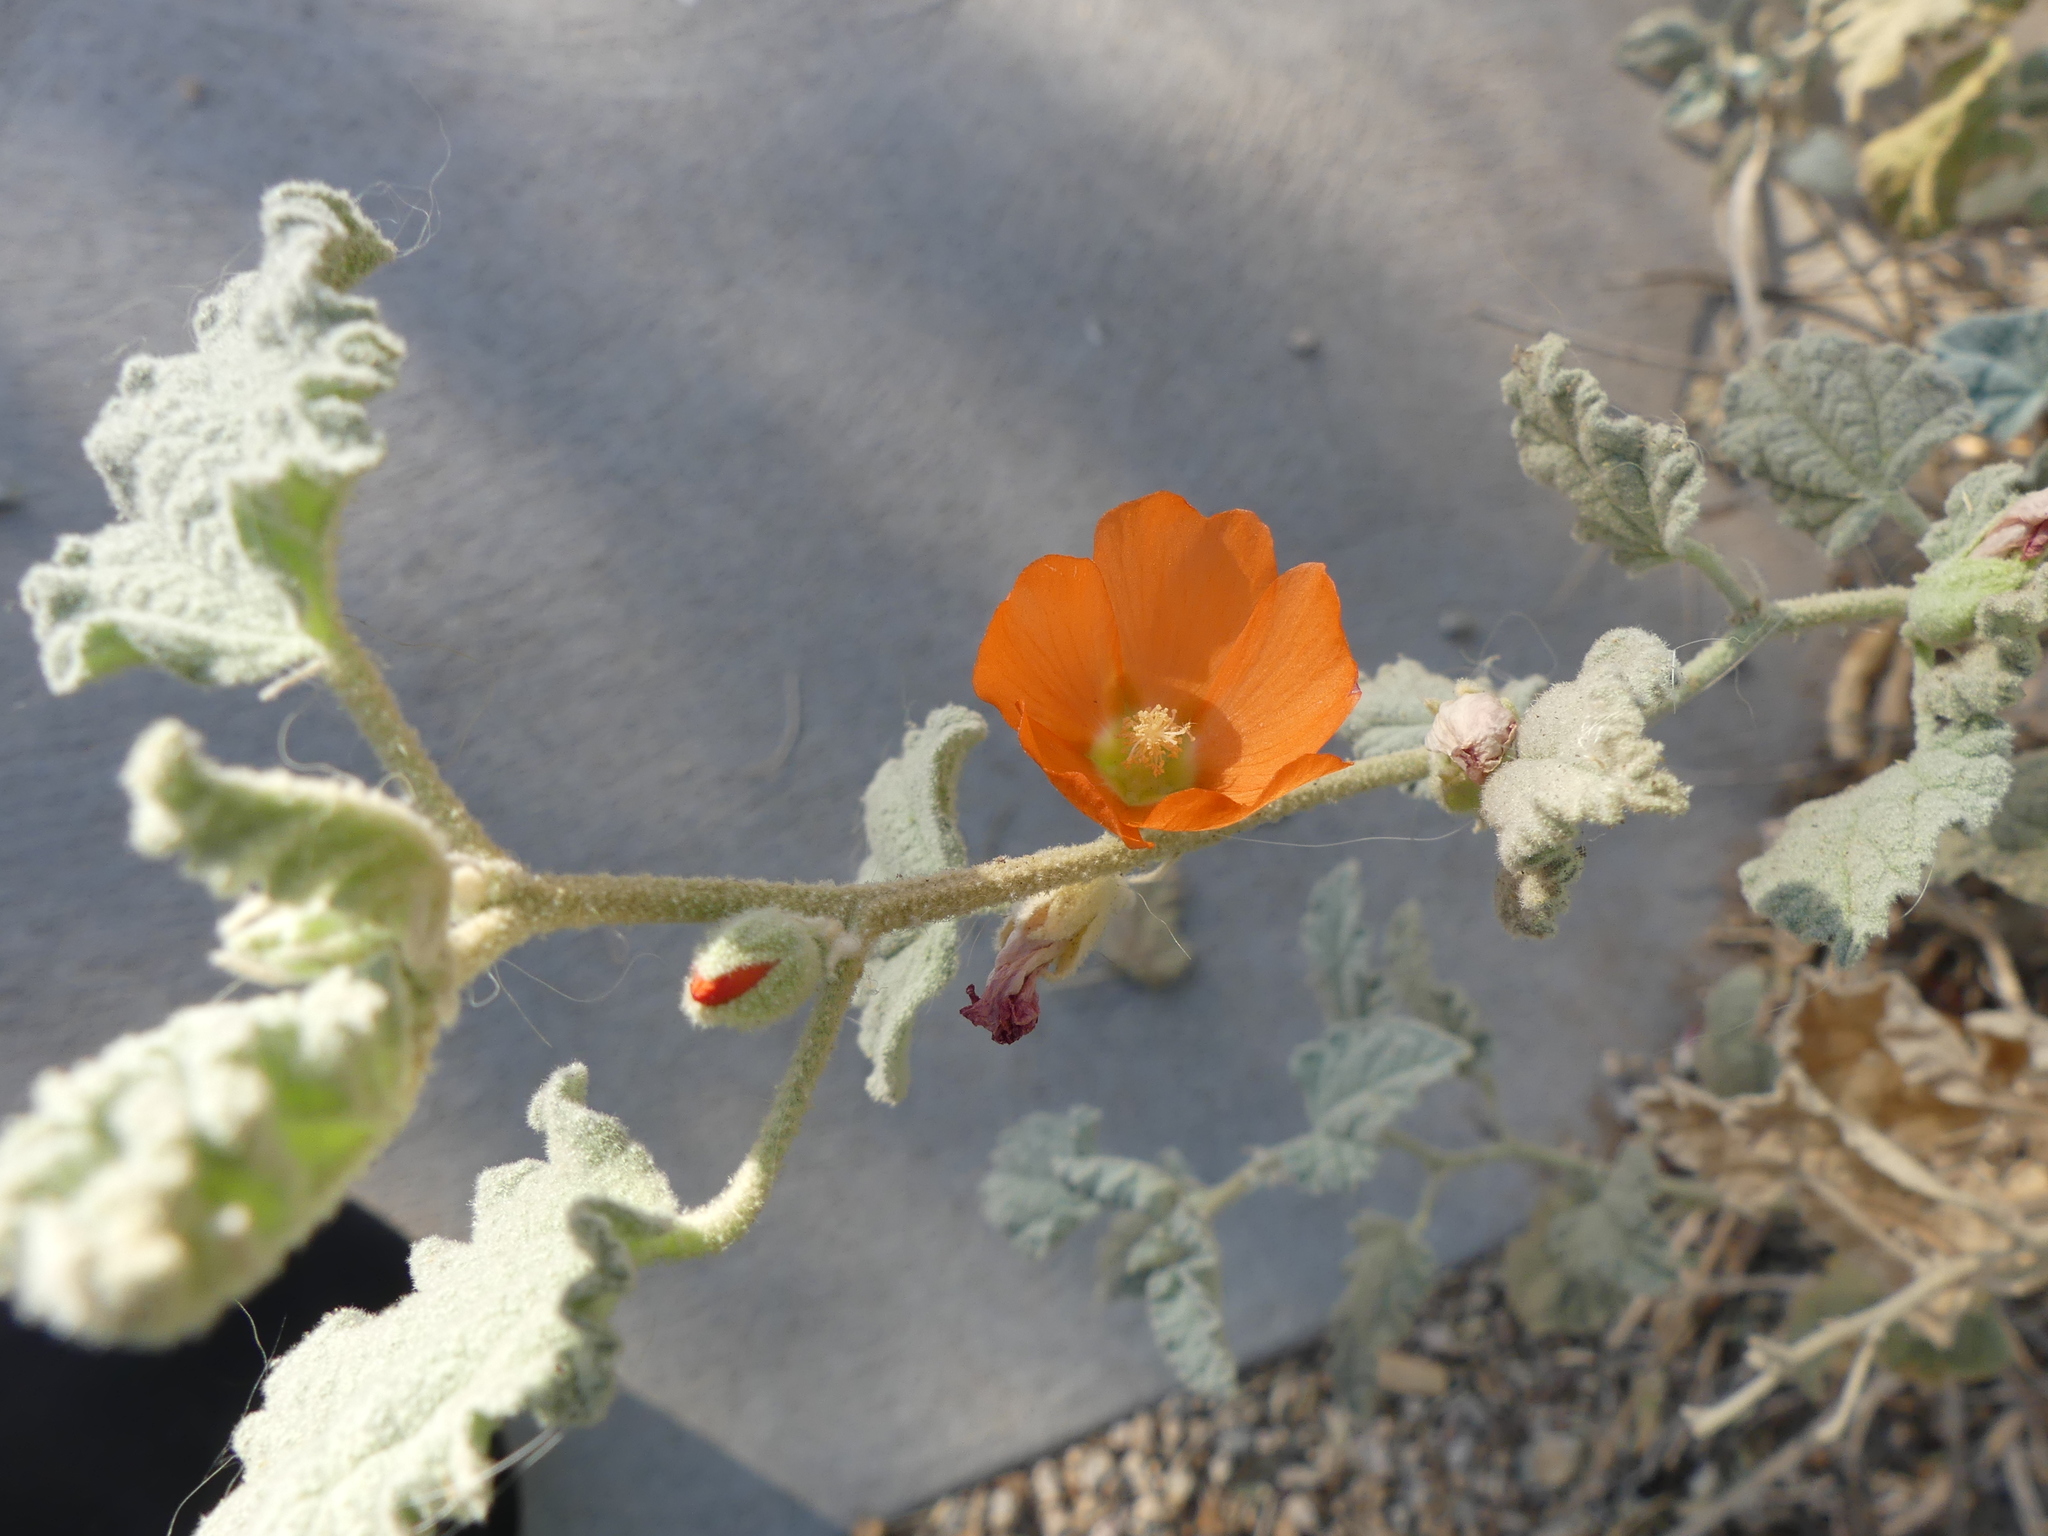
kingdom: Plantae
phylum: Tracheophyta
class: Magnoliopsida
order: Malvales
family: Malvaceae
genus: Sphaeralcea
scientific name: Sphaeralcea
